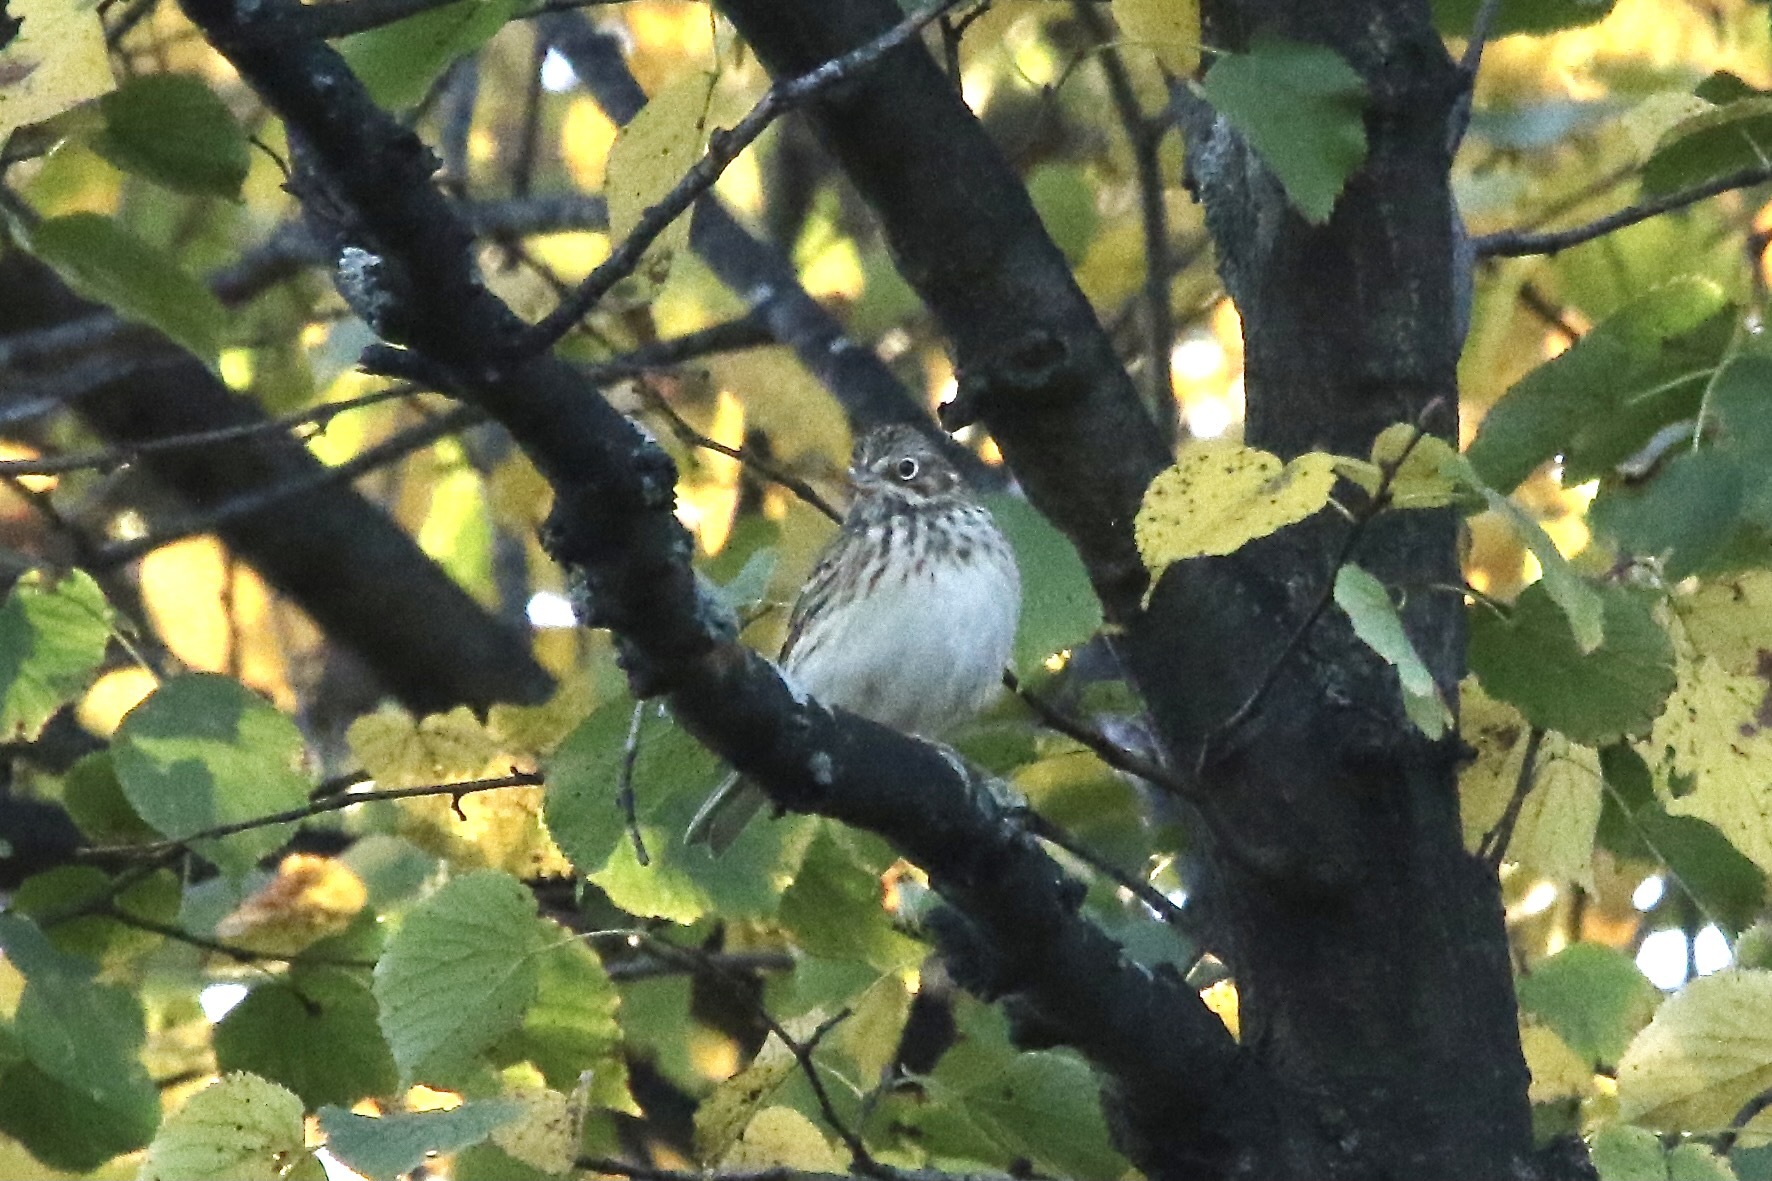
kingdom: Animalia
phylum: Chordata
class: Aves
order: Passeriformes
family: Passerellidae
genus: Pooecetes
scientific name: Pooecetes gramineus
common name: Vesper sparrow
